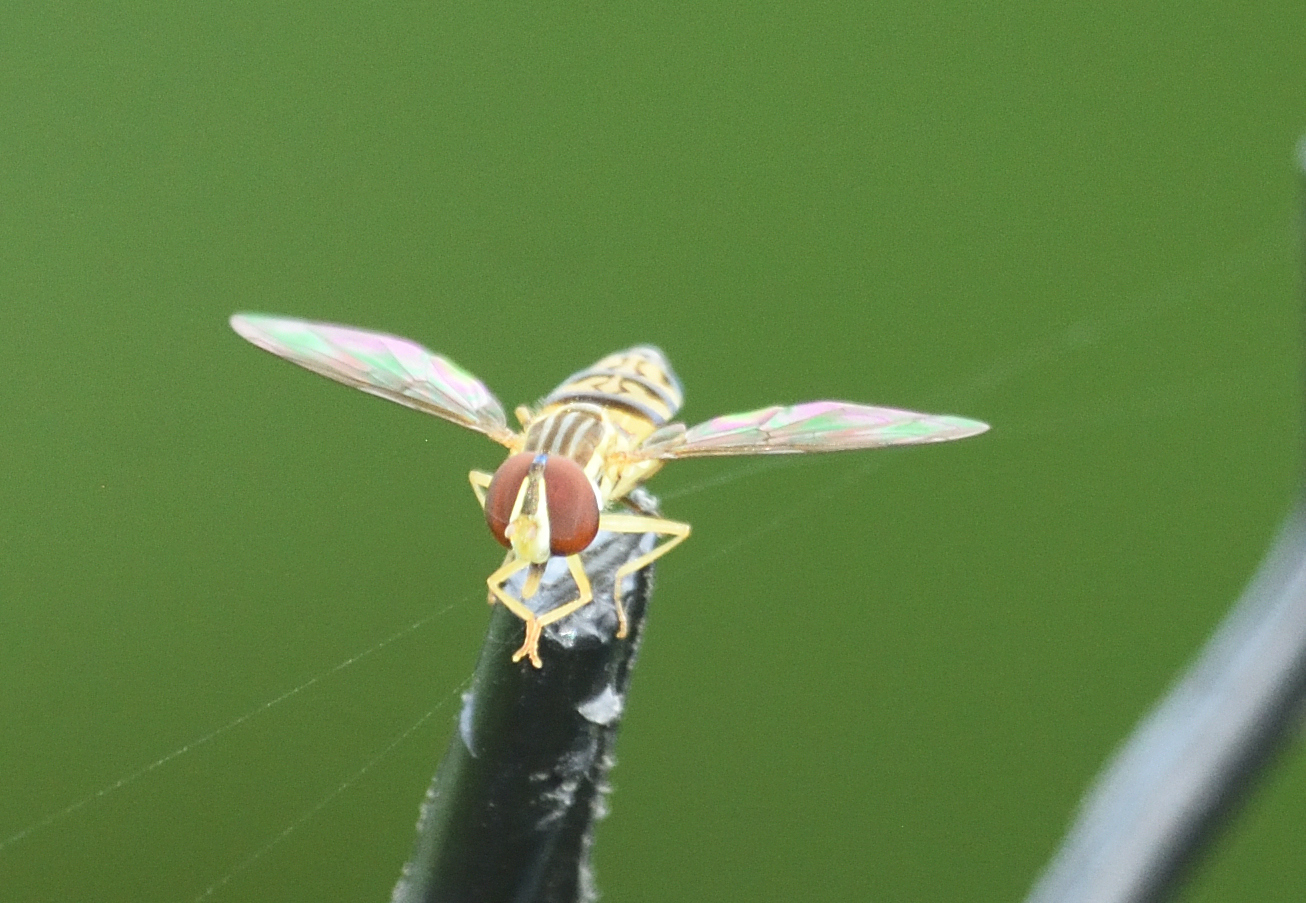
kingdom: Animalia
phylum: Arthropoda
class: Insecta
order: Diptera
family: Syrphidae
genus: Toxomerus
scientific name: Toxomerus geminatus
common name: Eastern calligrapher
